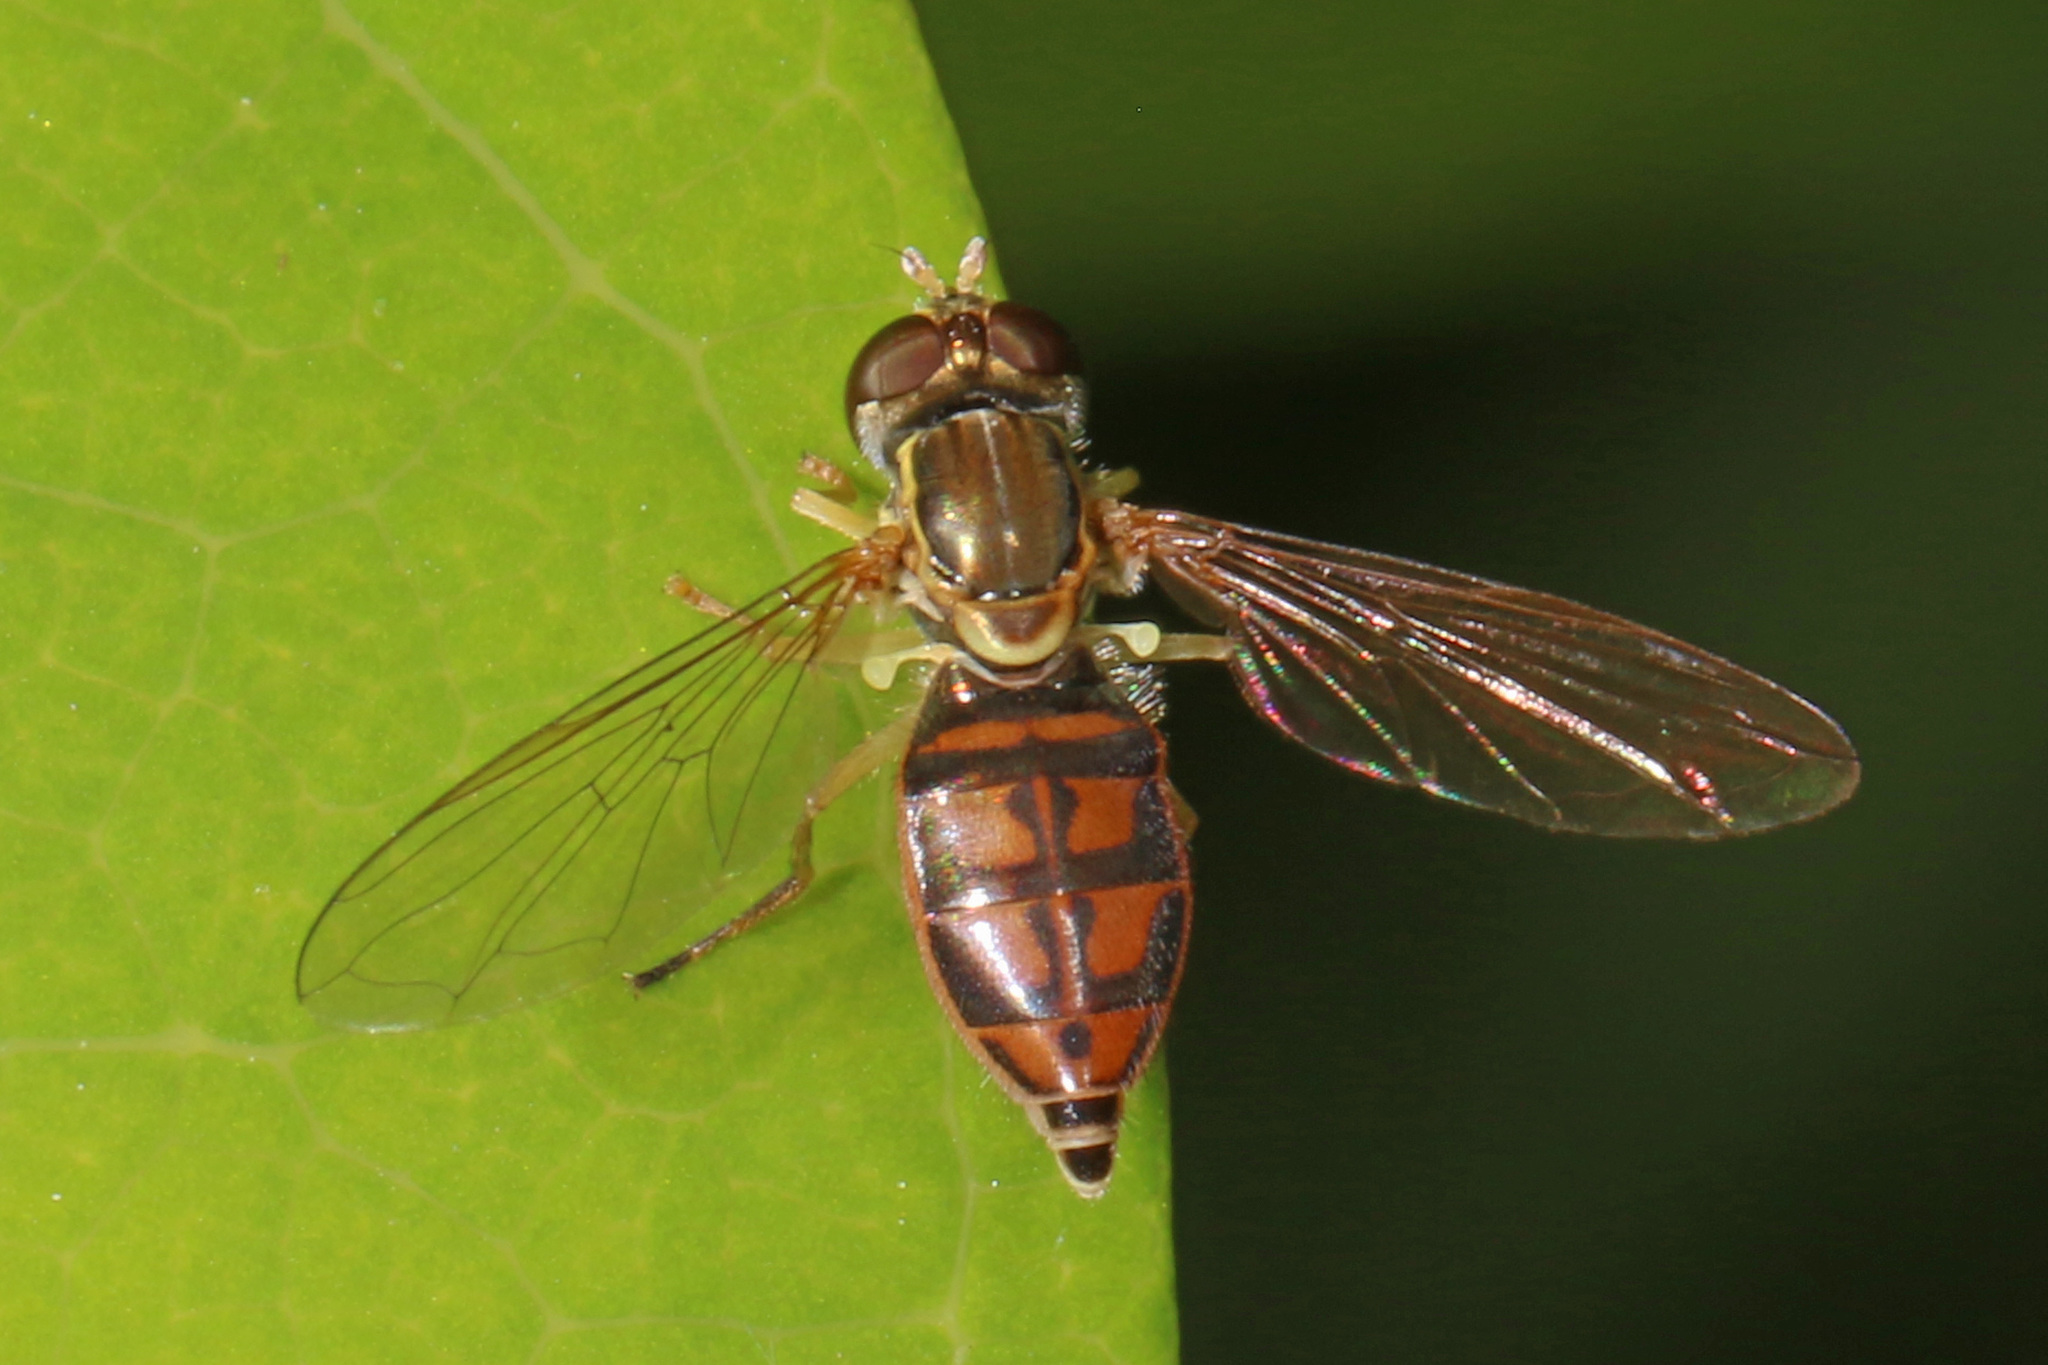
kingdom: Animalia
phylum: Arthropoda
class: Insecta
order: Diptera
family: Syrphidae
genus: Toxomerus
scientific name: Toxomerus marginatus
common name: Syrphid fly
